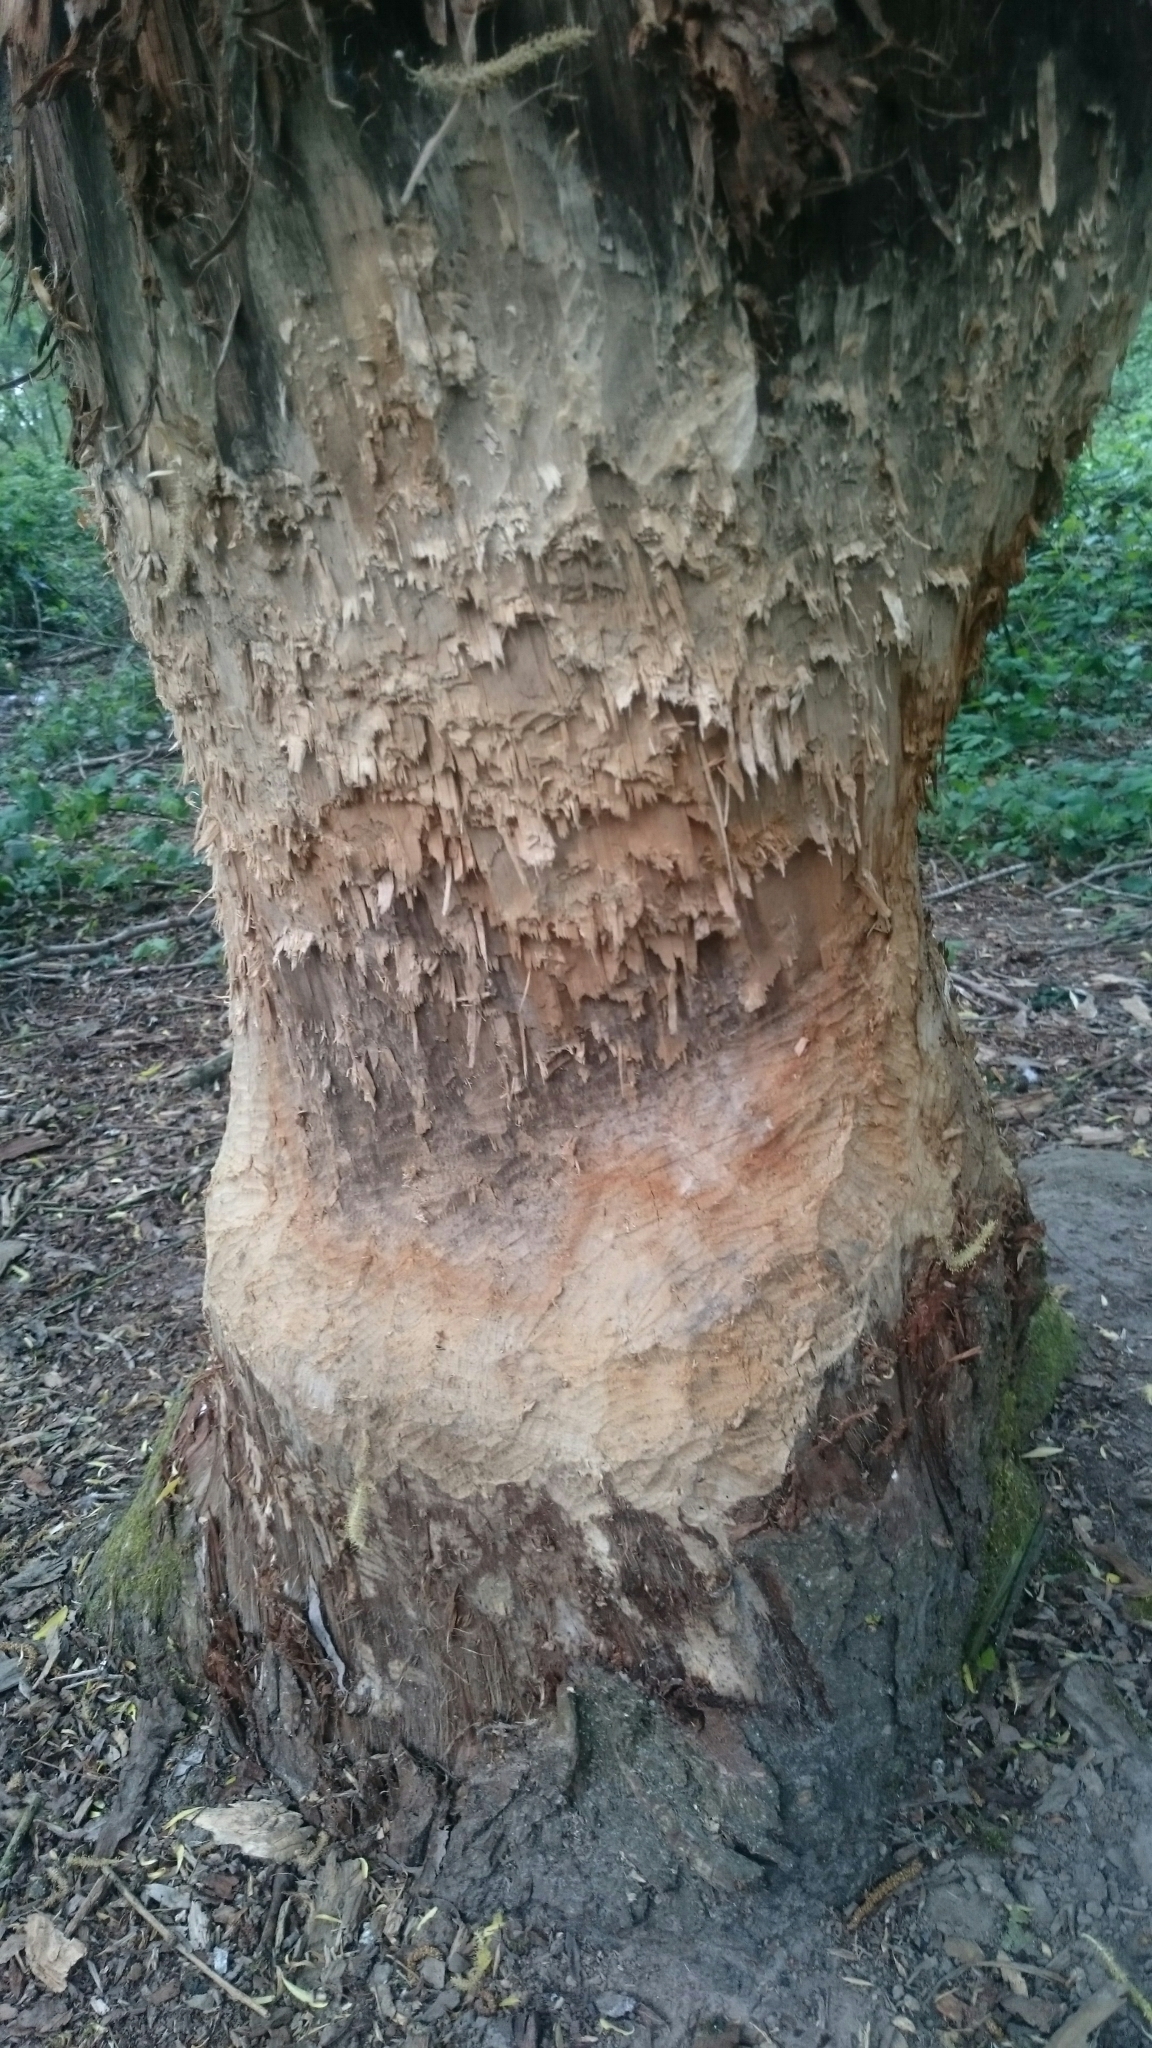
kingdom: Animalia
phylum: Chordata
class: Mammalia
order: Rodentia
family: Castoridae
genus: Castor
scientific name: Castor fiber
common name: Eurasian beaver
